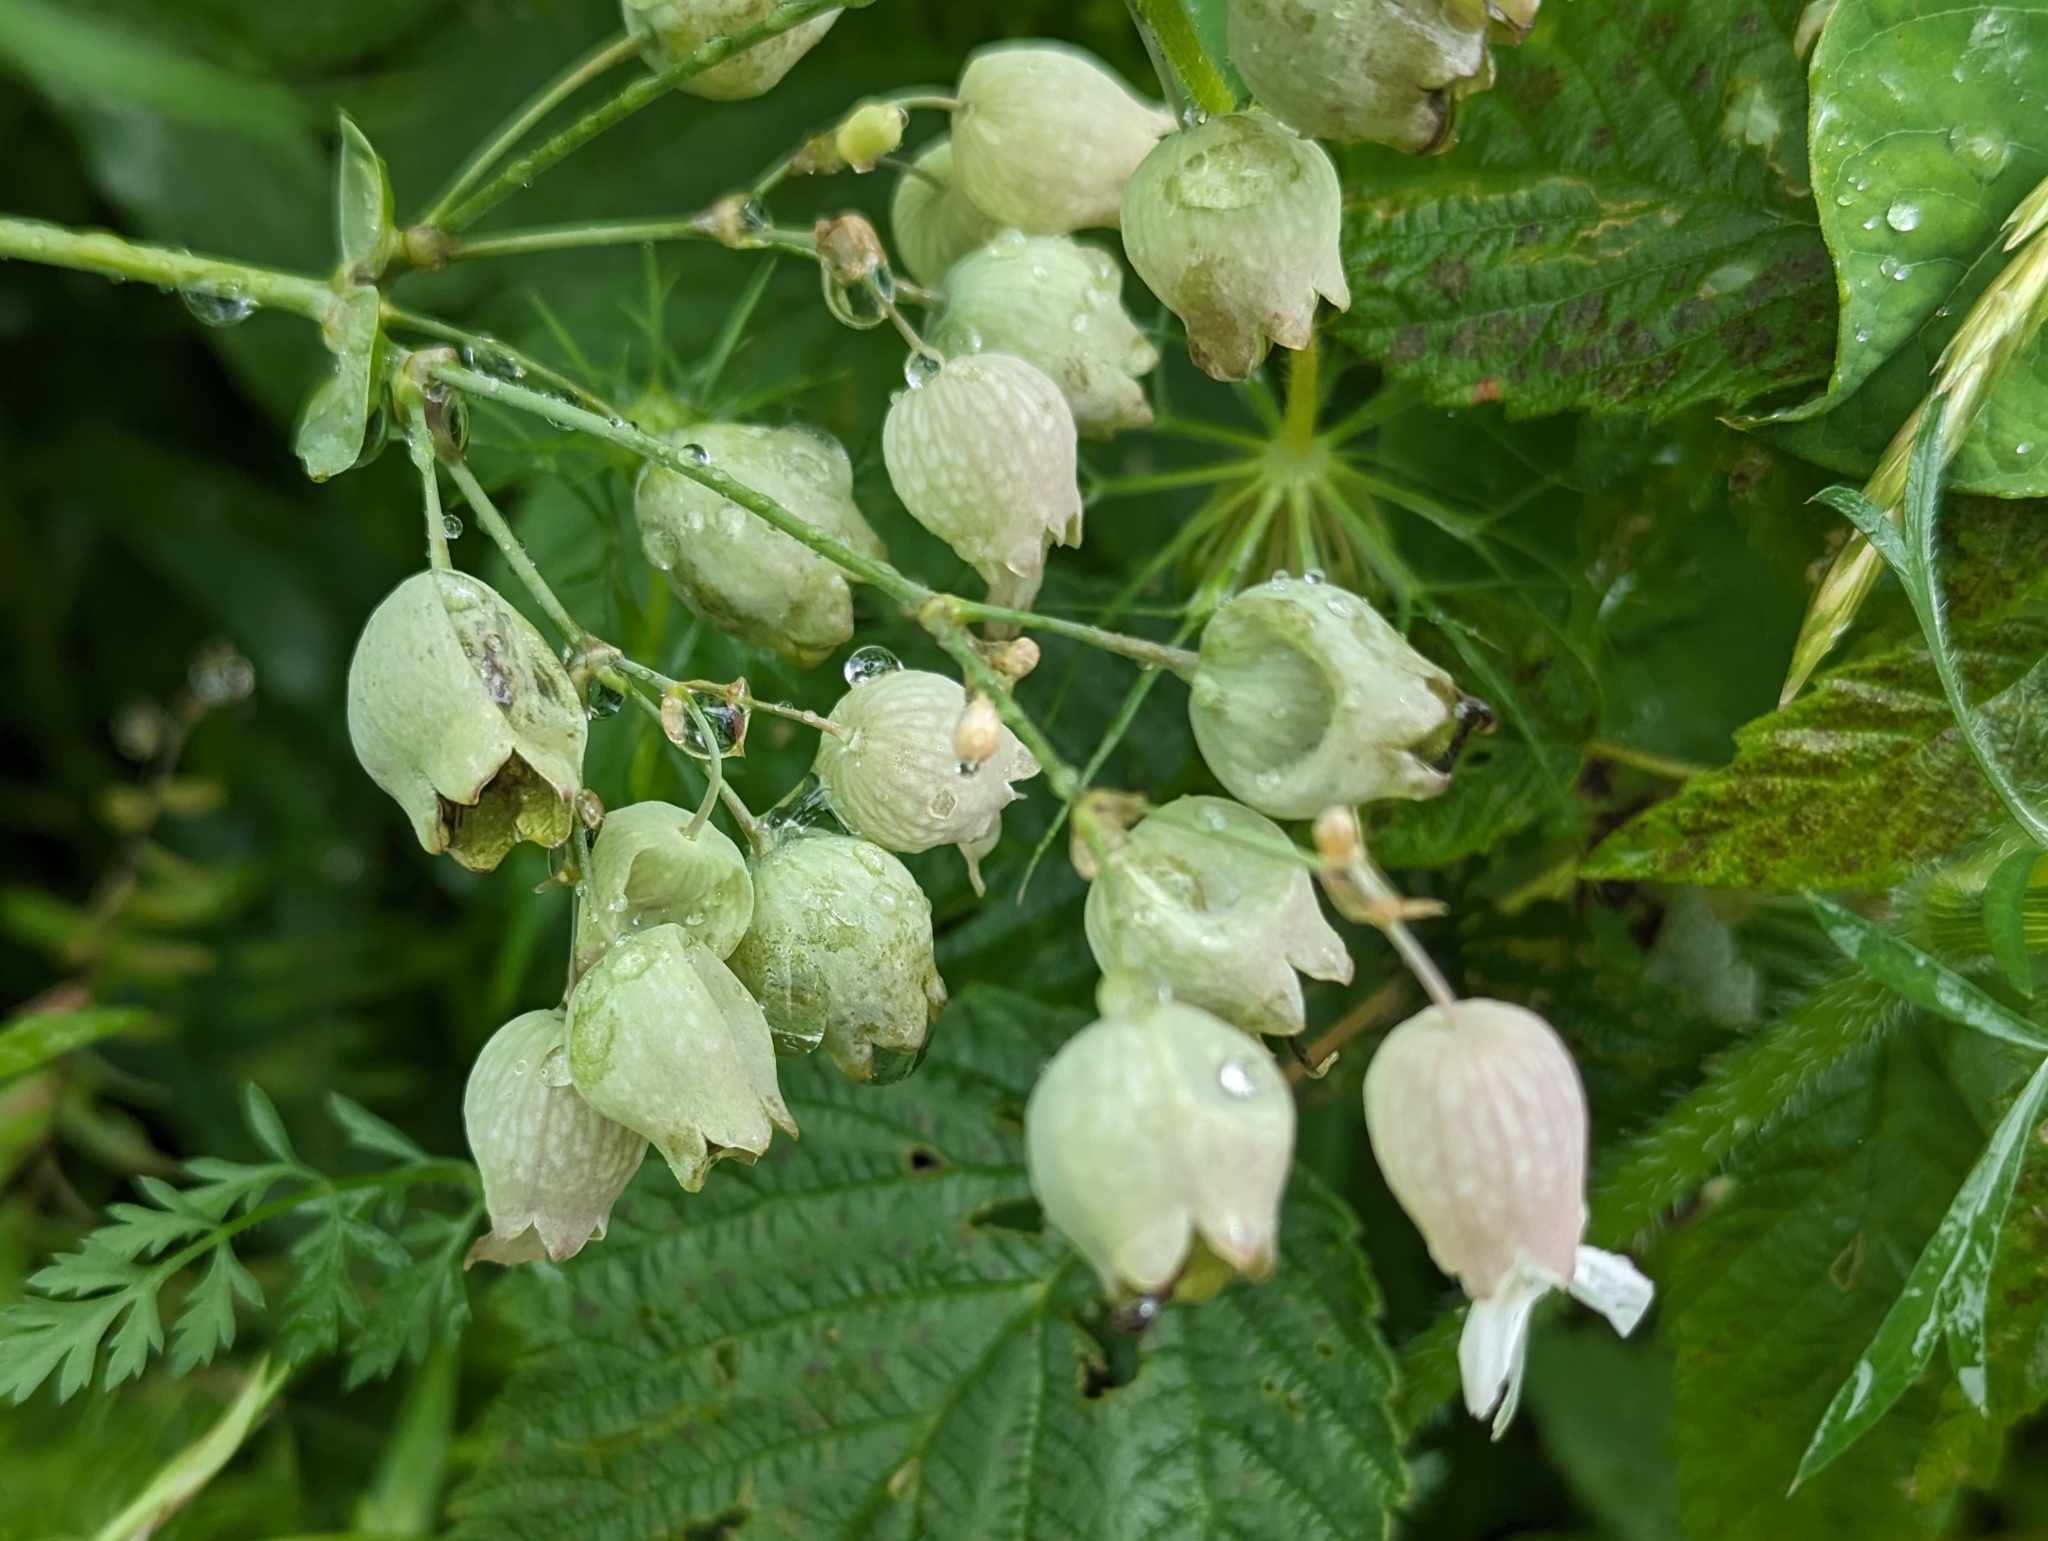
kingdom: Plantae
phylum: Tracheophyta
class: Magnoliopsida
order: Caryophyllales
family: Caryophyllaceae
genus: Silene
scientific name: Silene vulgaris
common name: Bladder campion
